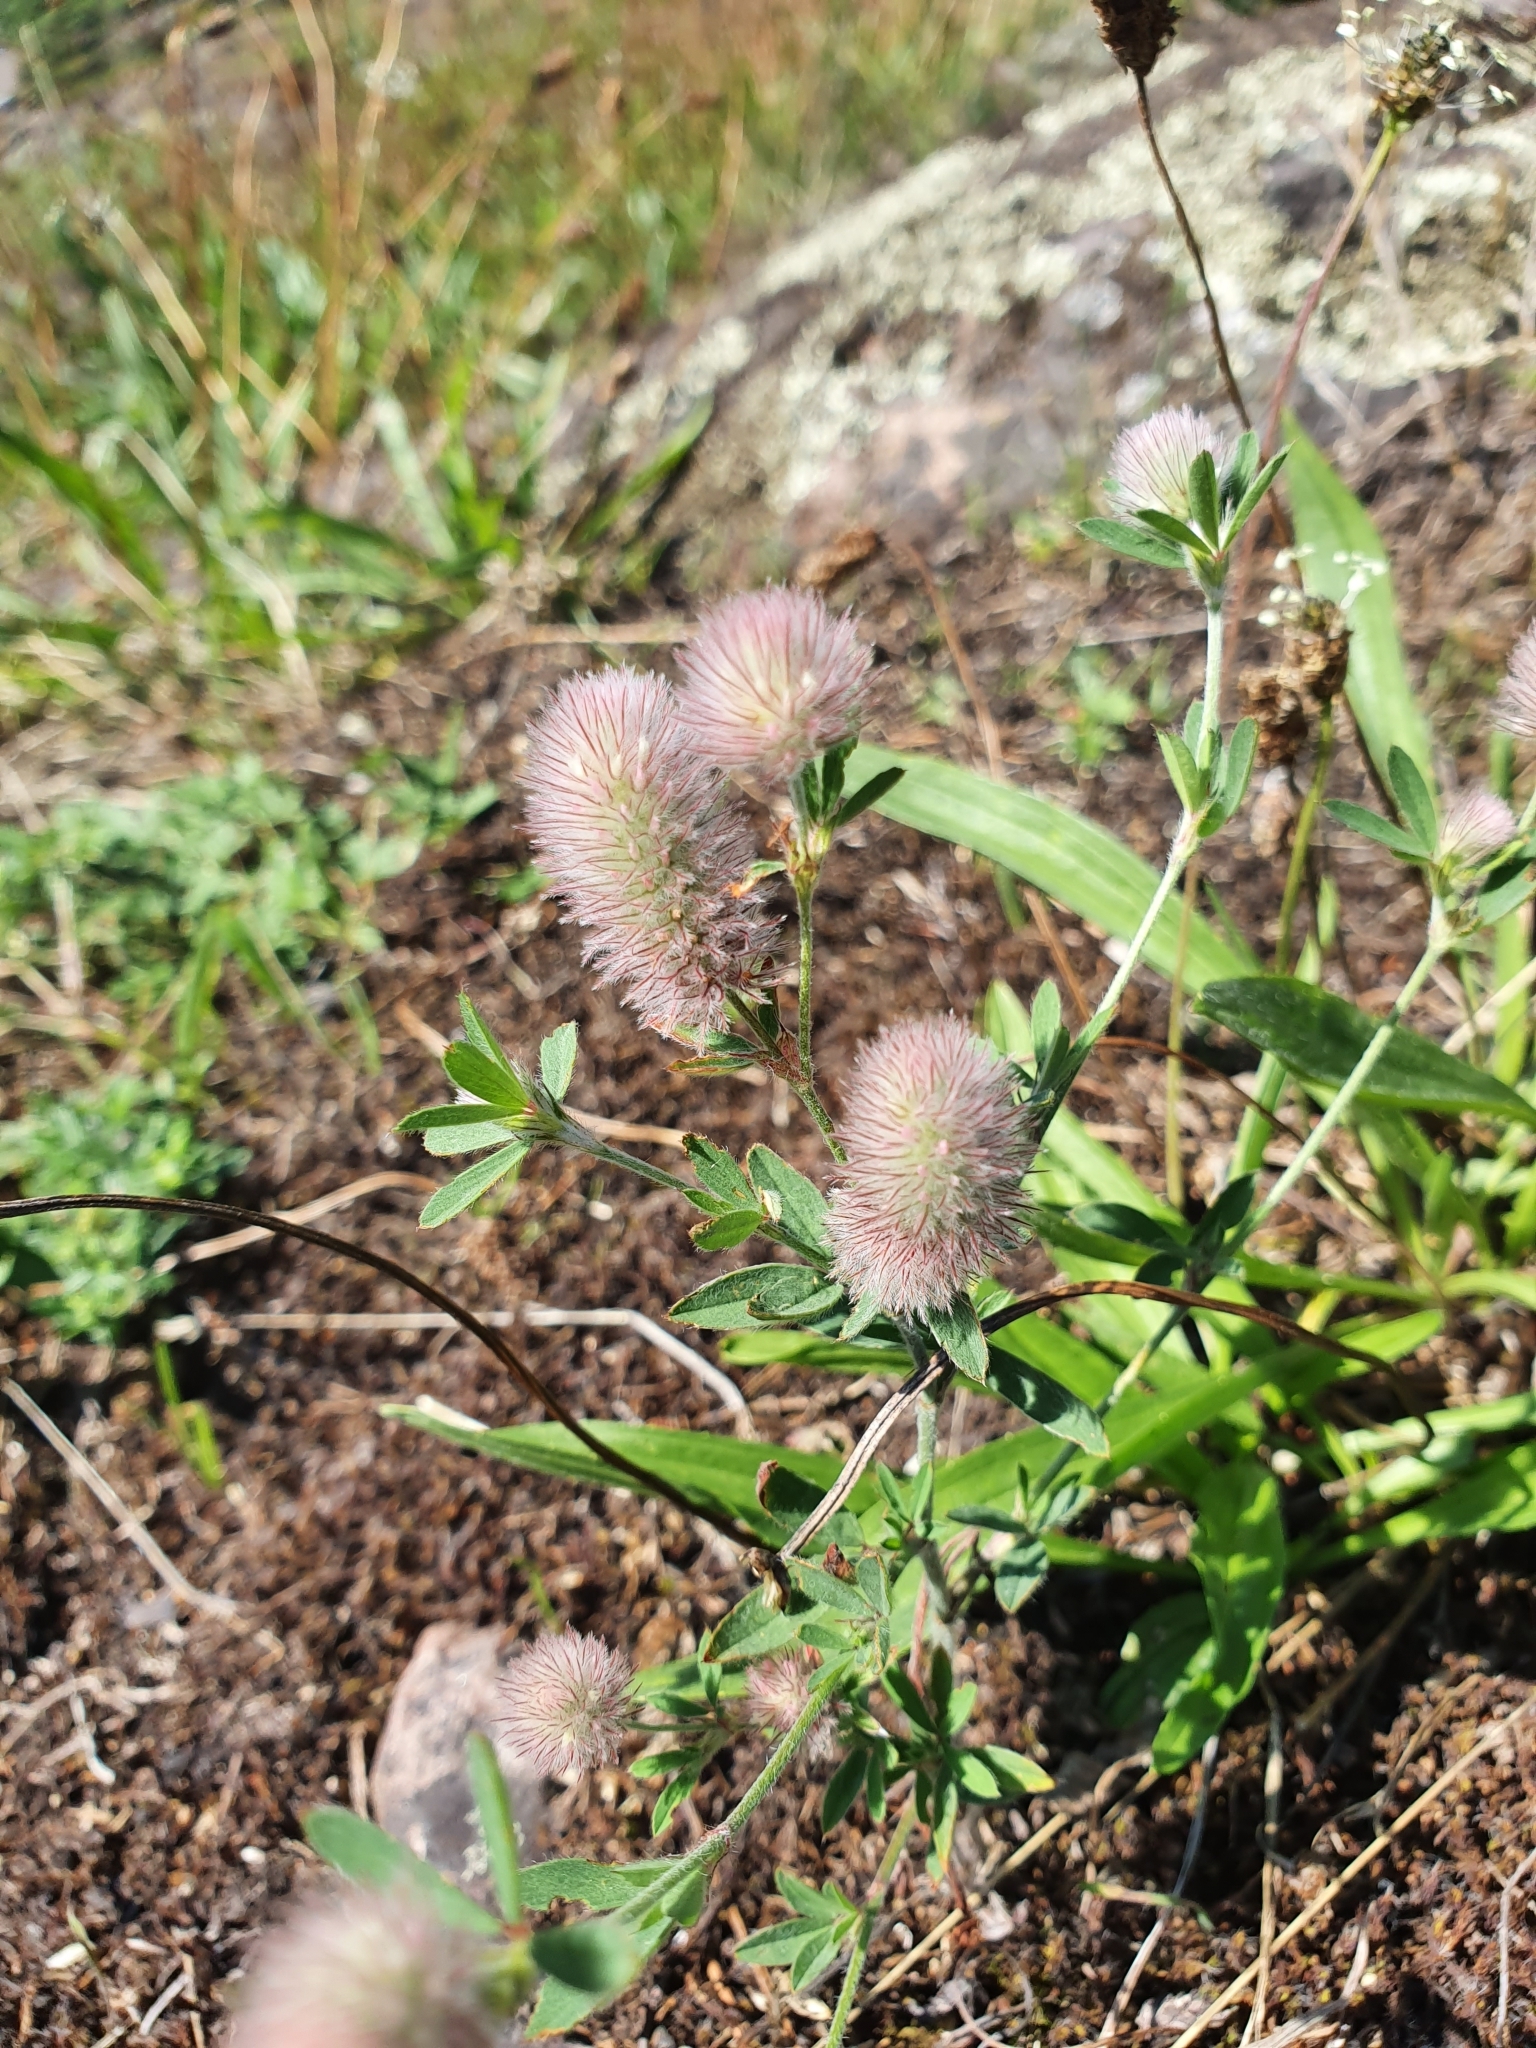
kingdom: Plantae
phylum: Tracheophyta
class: Magnoliopsida
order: Fabales
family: Fabaceae
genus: Trifolium
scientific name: Trifolium arvense
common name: Hare's-foot clover
